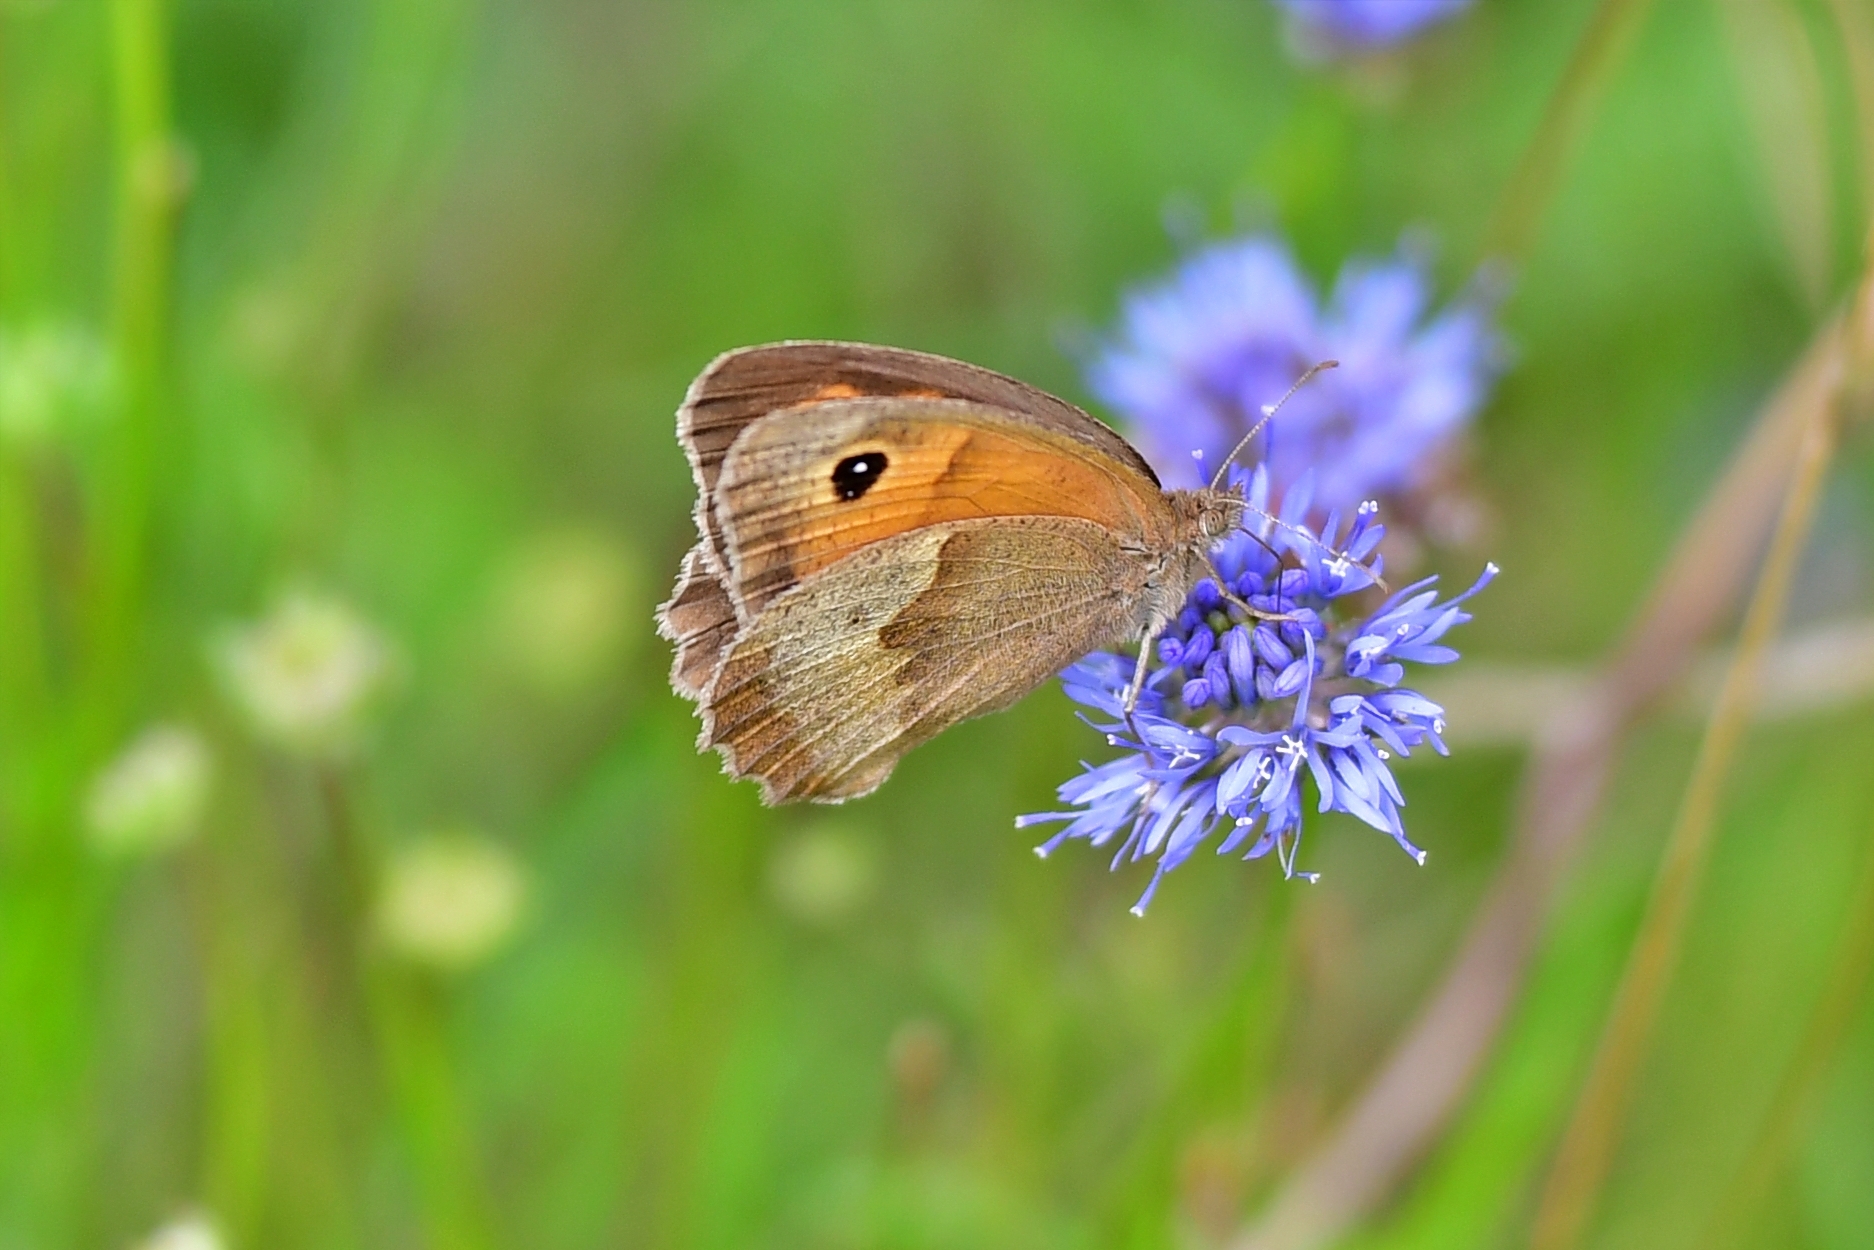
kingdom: Animalia
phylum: Arthropoda
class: Insecta
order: Lepidoptera
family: Nymphalidae
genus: Maniola
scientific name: Maniola jurtina
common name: Meadow brown
